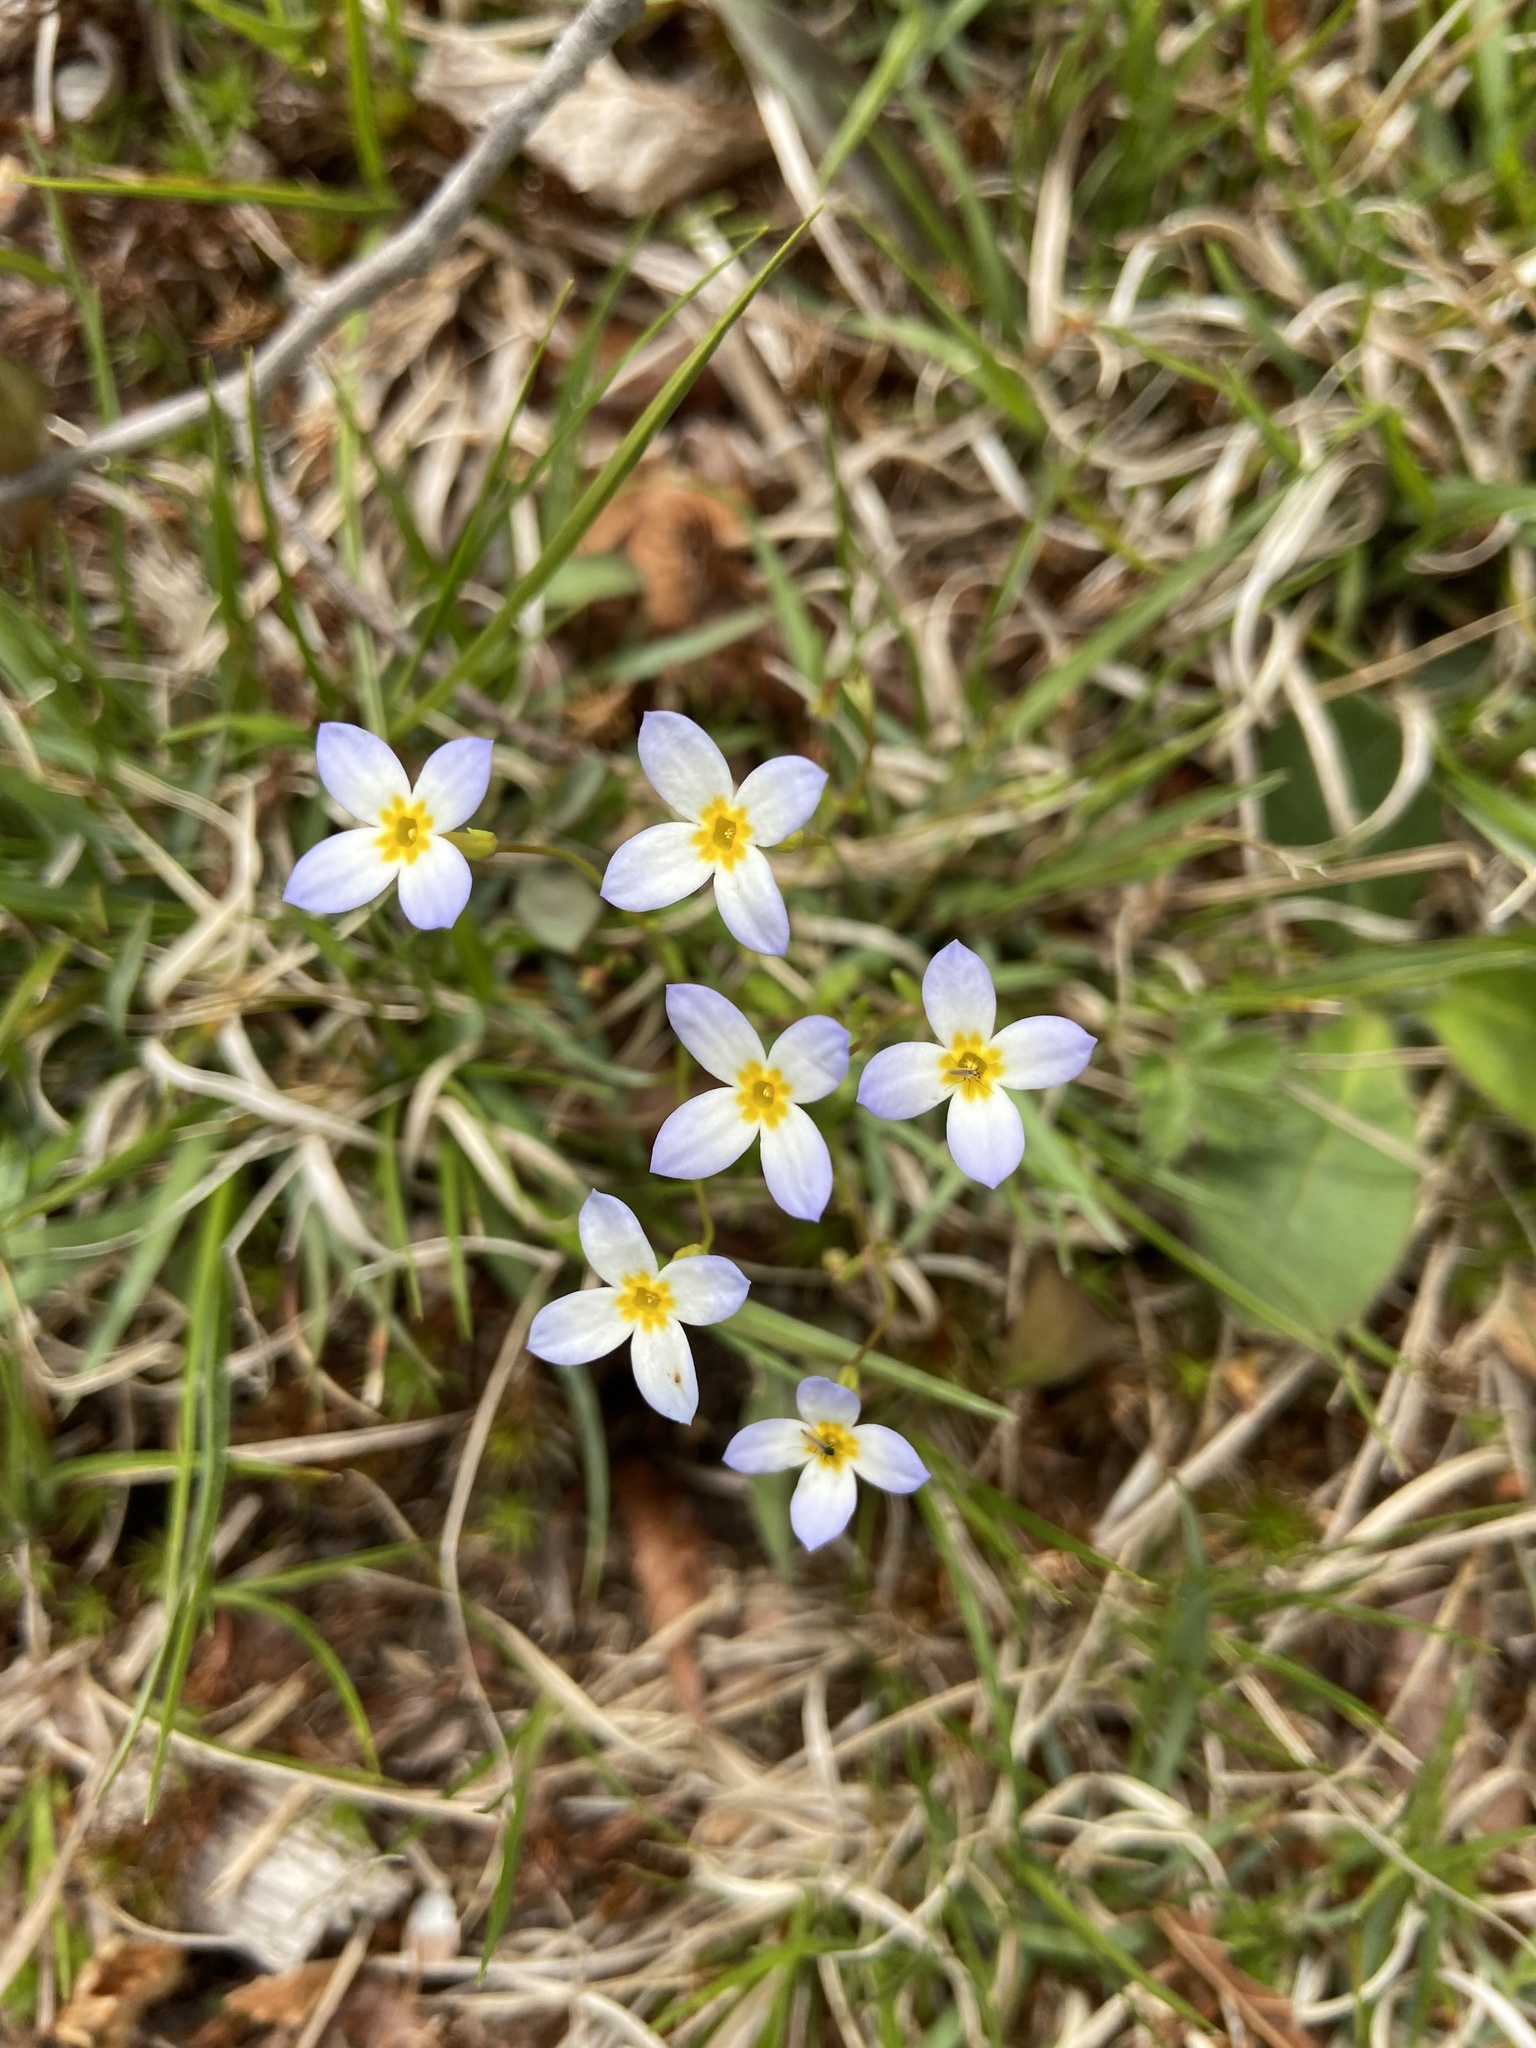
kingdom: Plantae
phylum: Tracheophyta
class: Magnoliopsida
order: Gentianales
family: Rubiaceae
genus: Houstonia
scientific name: Houstonia caerulea
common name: Bluets
